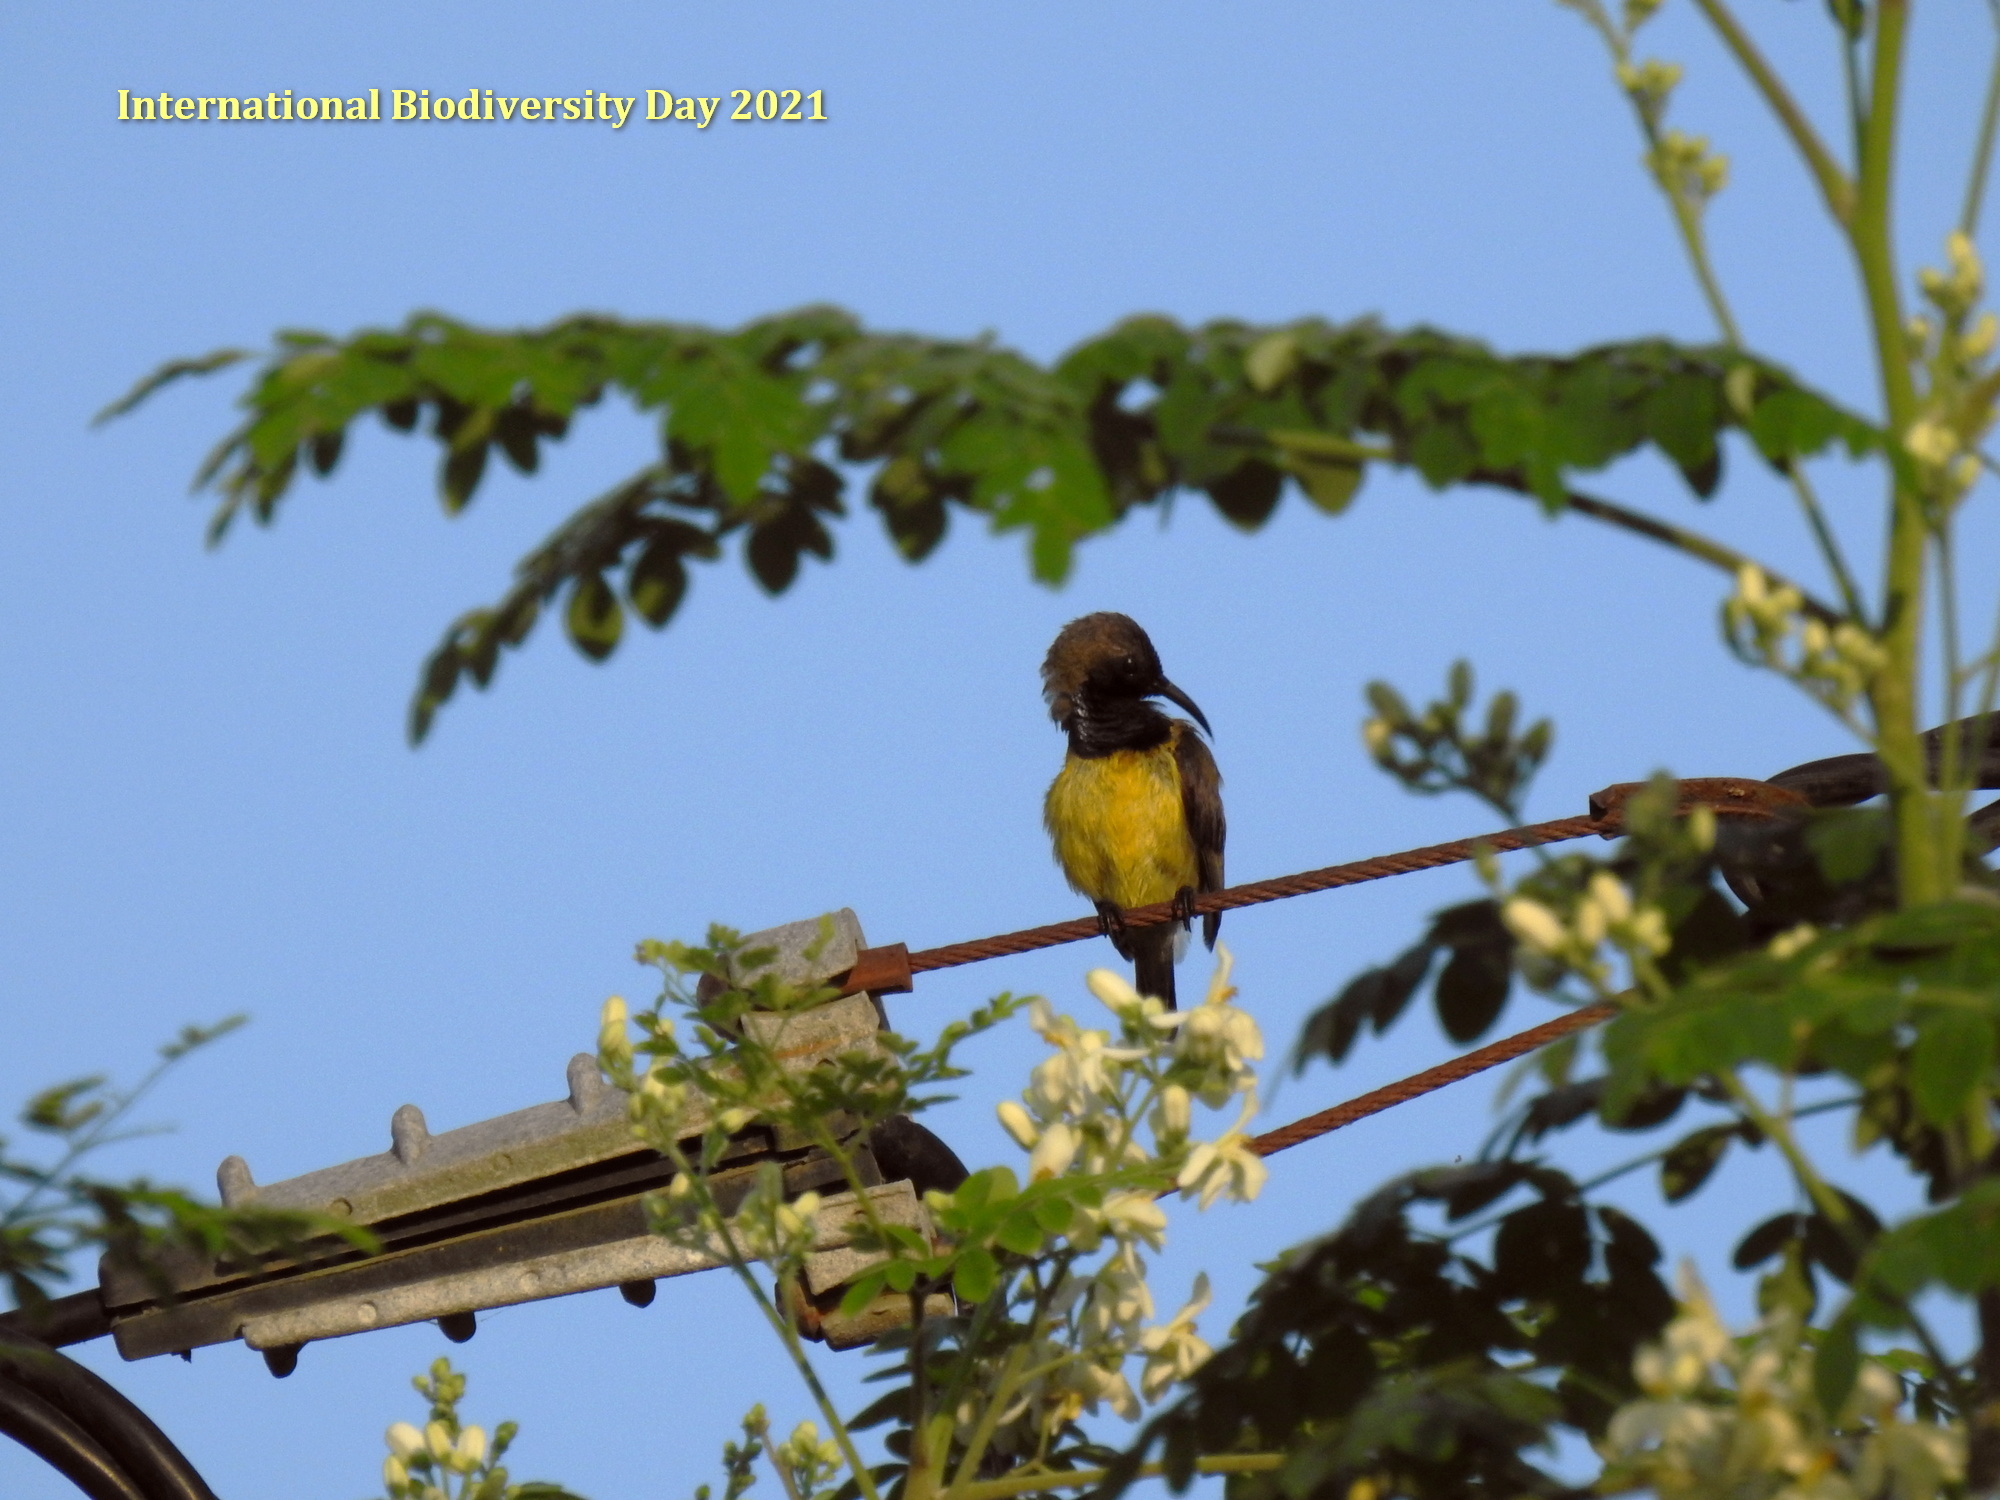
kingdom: Animalia
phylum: Chordata
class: Aves
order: Passeriformes
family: Nectariniidae
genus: Cinnyris
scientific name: Cinnyris
